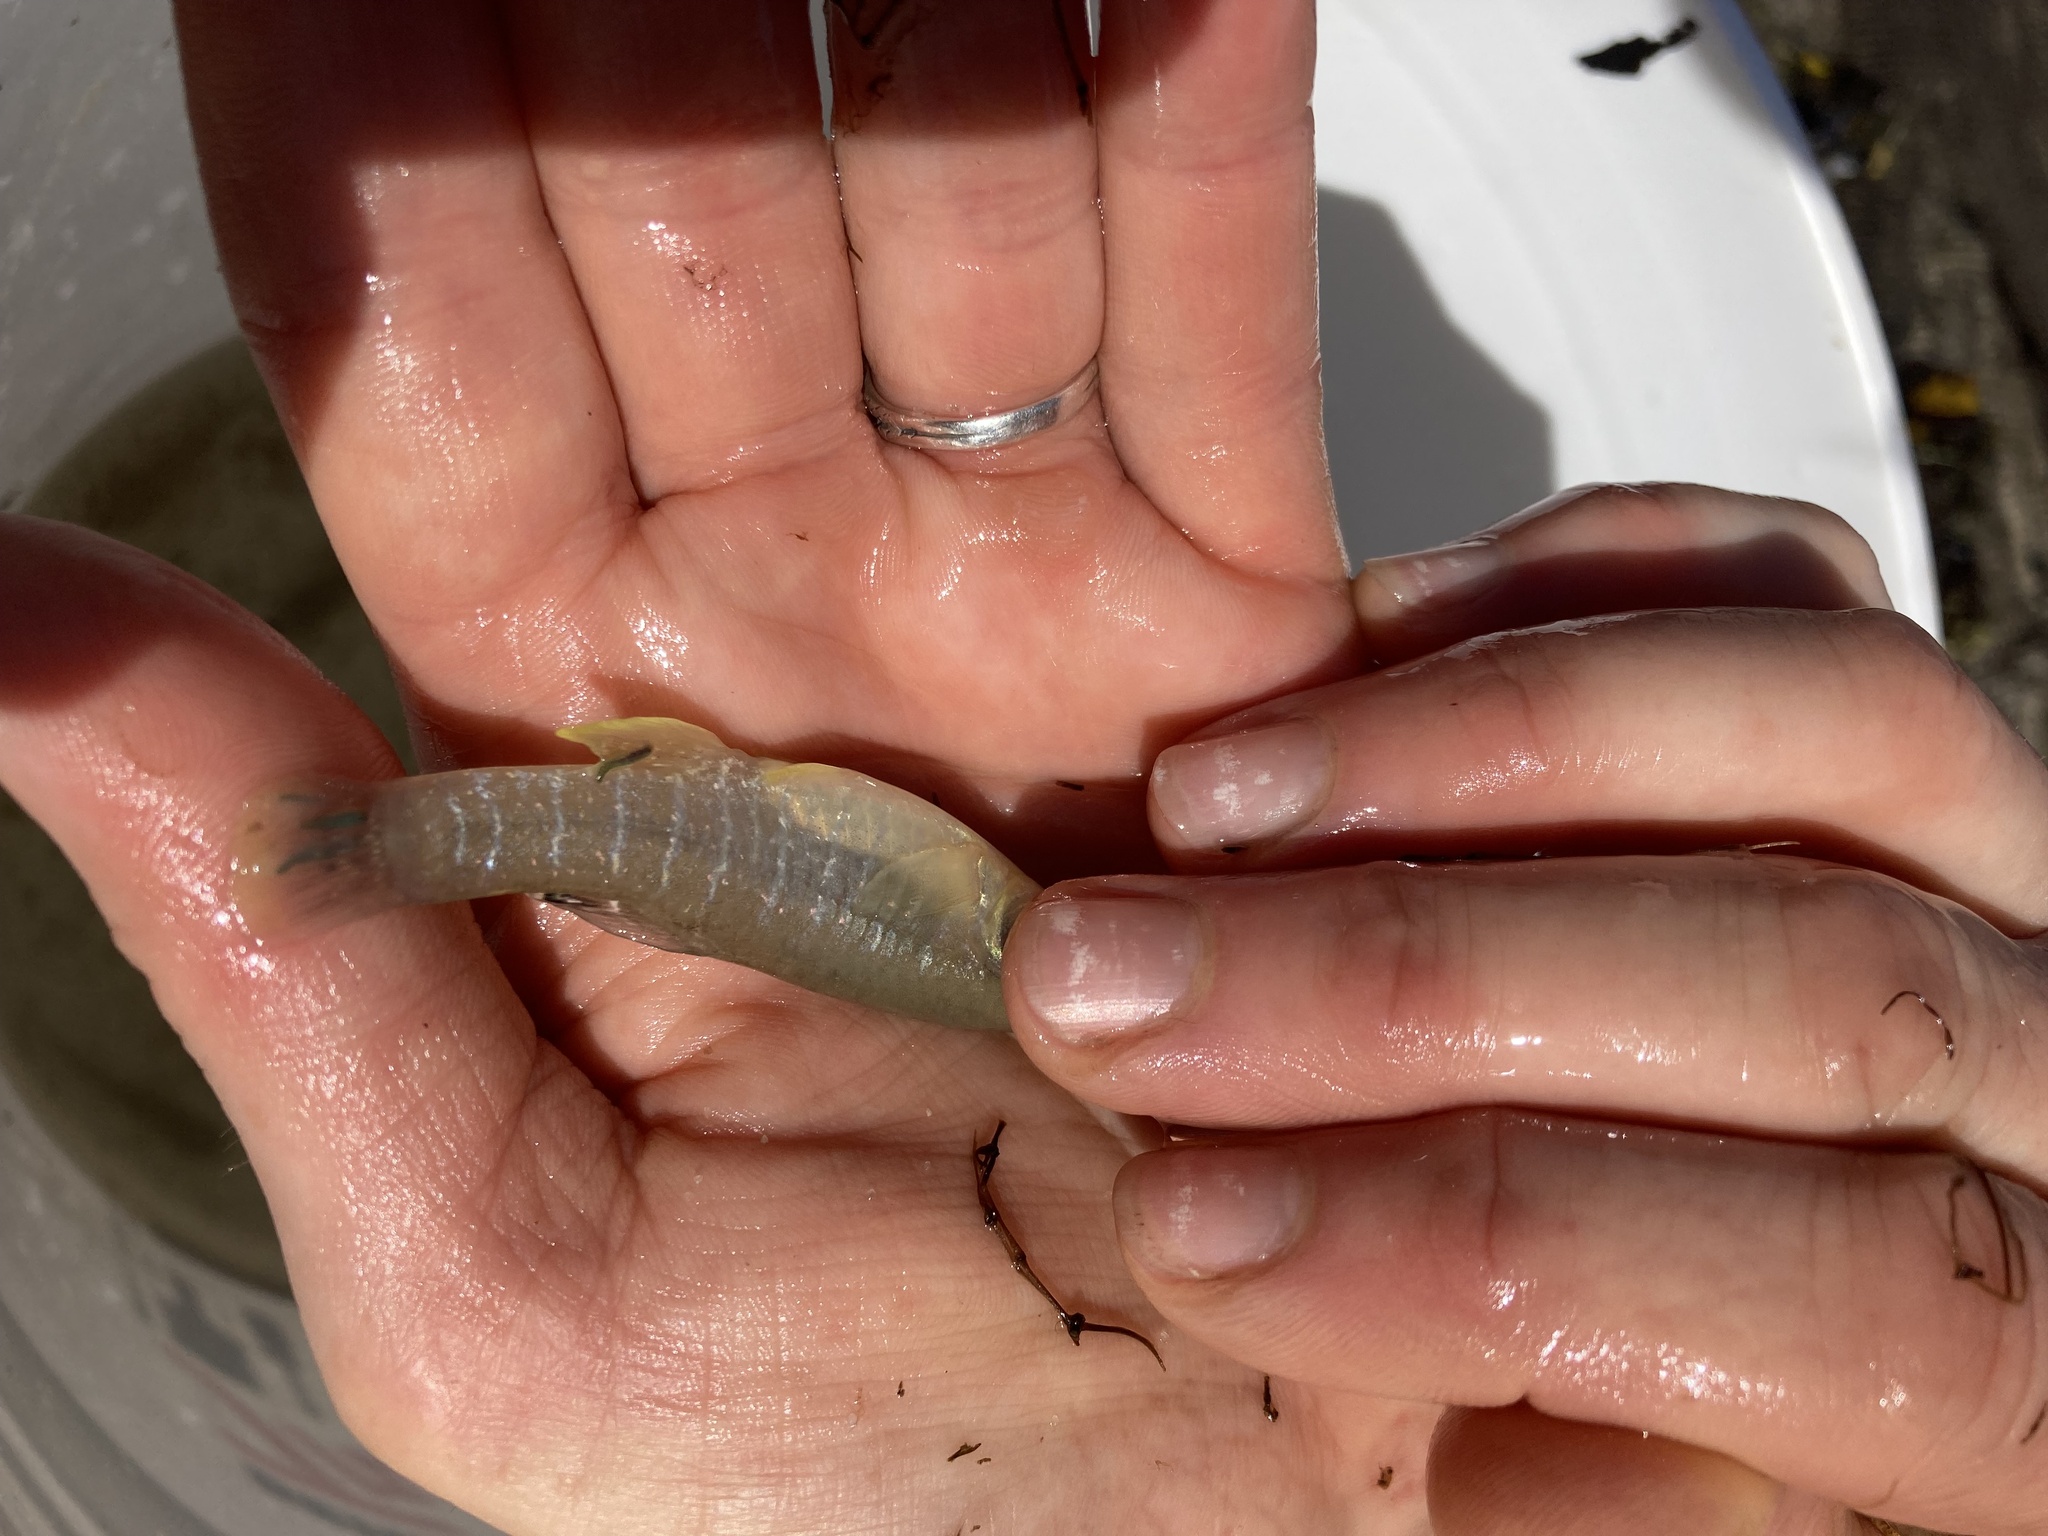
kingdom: Animalia
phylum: Chordata
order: Cyprinodontiformes
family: Fundulidae
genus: Fundulus
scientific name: Fundulus heteroclitus
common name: Mummichog
